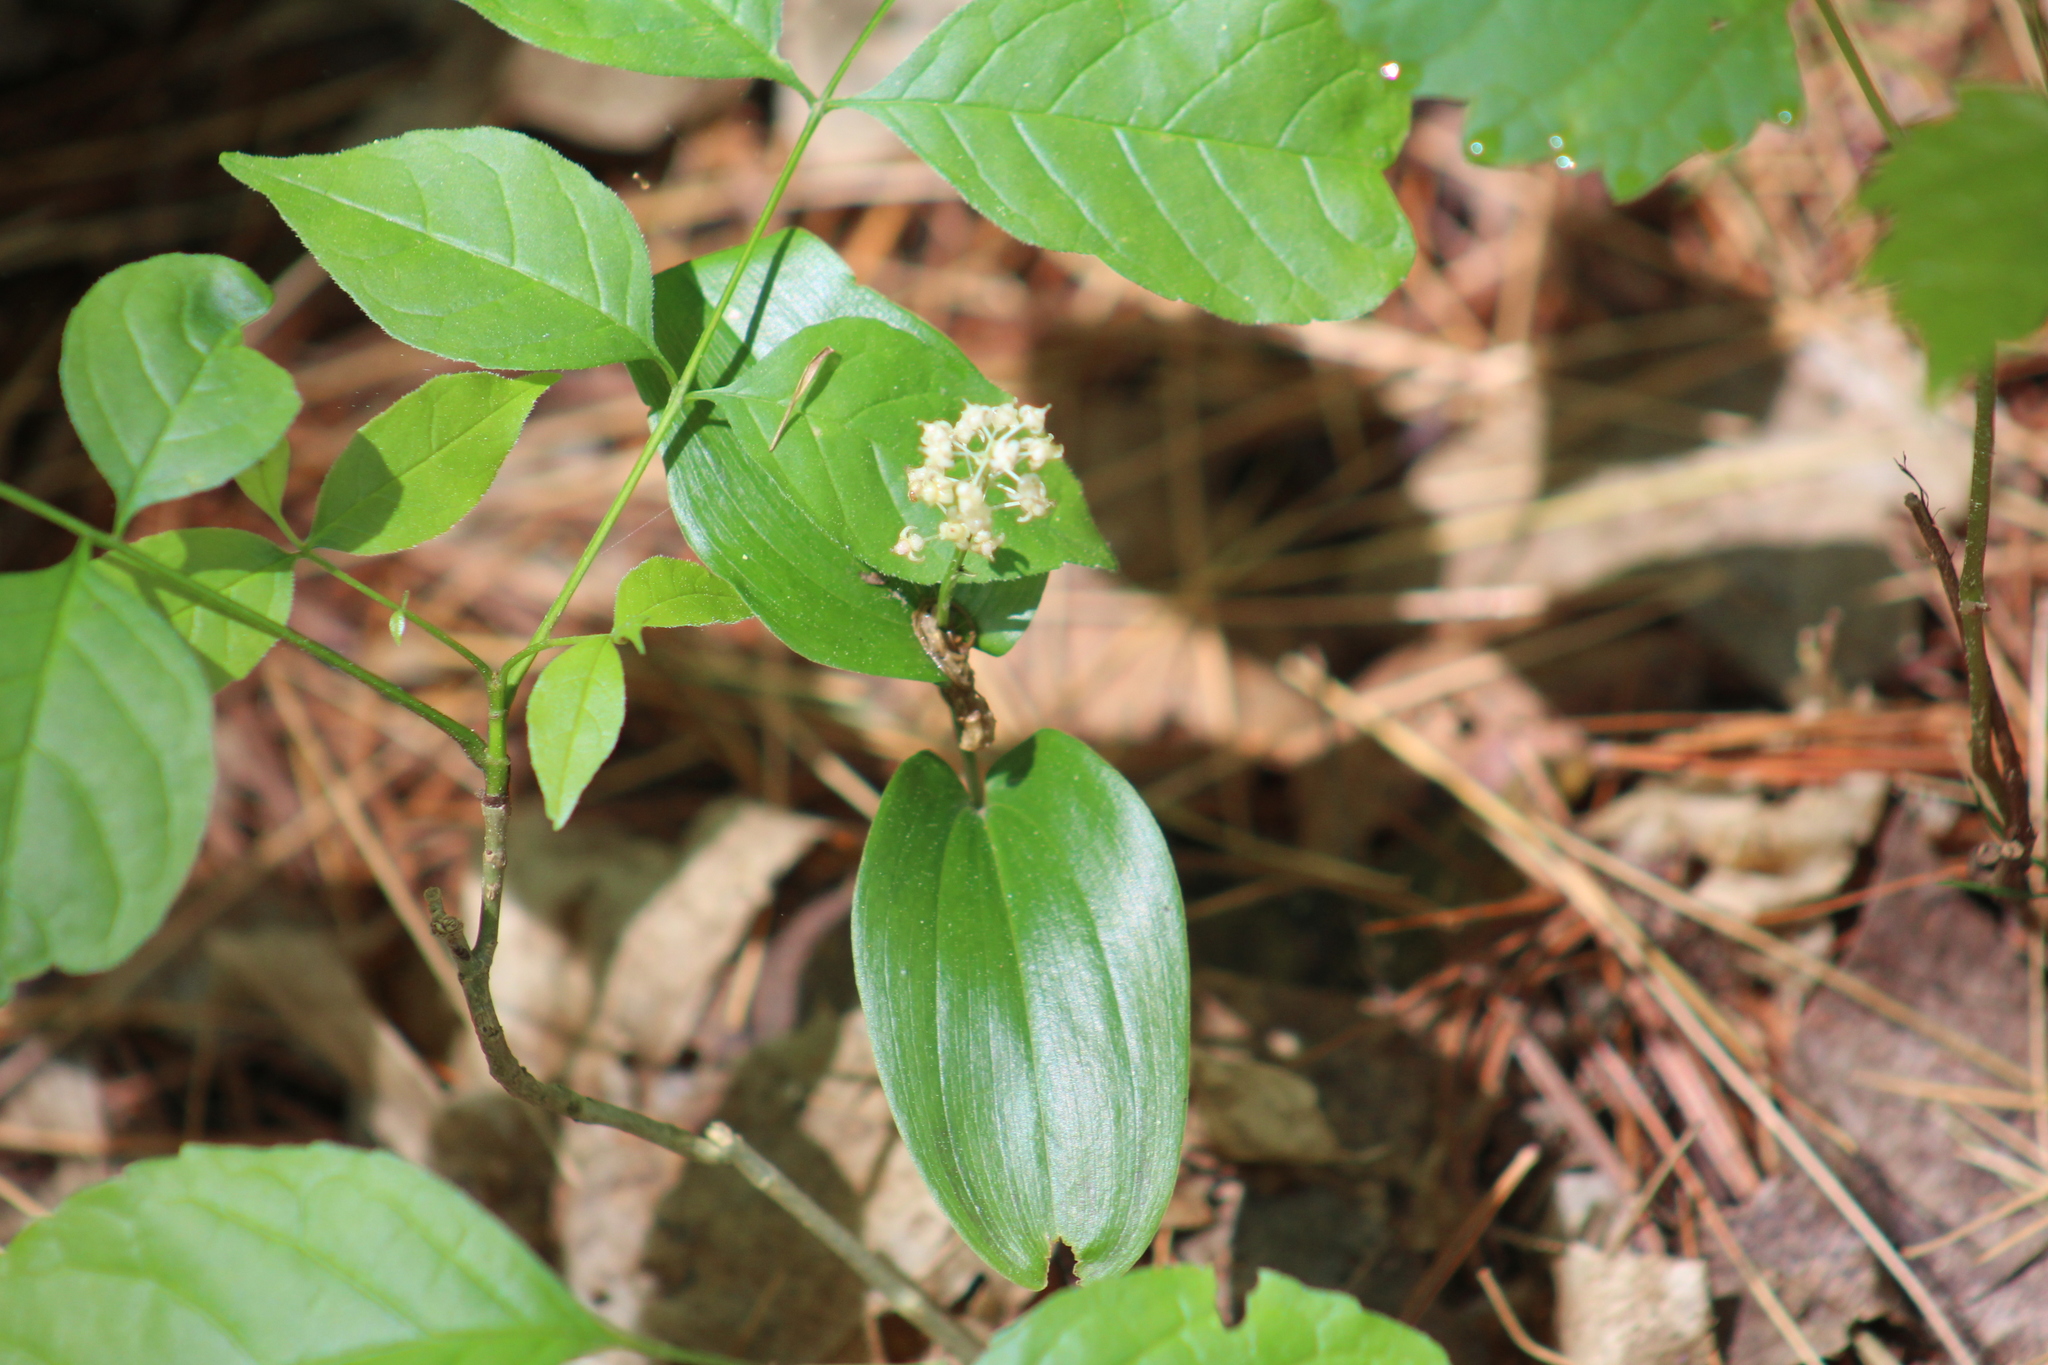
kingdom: Plantae
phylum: Tracheophyta
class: Liliopsida
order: Asparagales
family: Asparagaceae
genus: Maianthemum
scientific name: Maianthemum canadense
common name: False lily-of-the-valley
